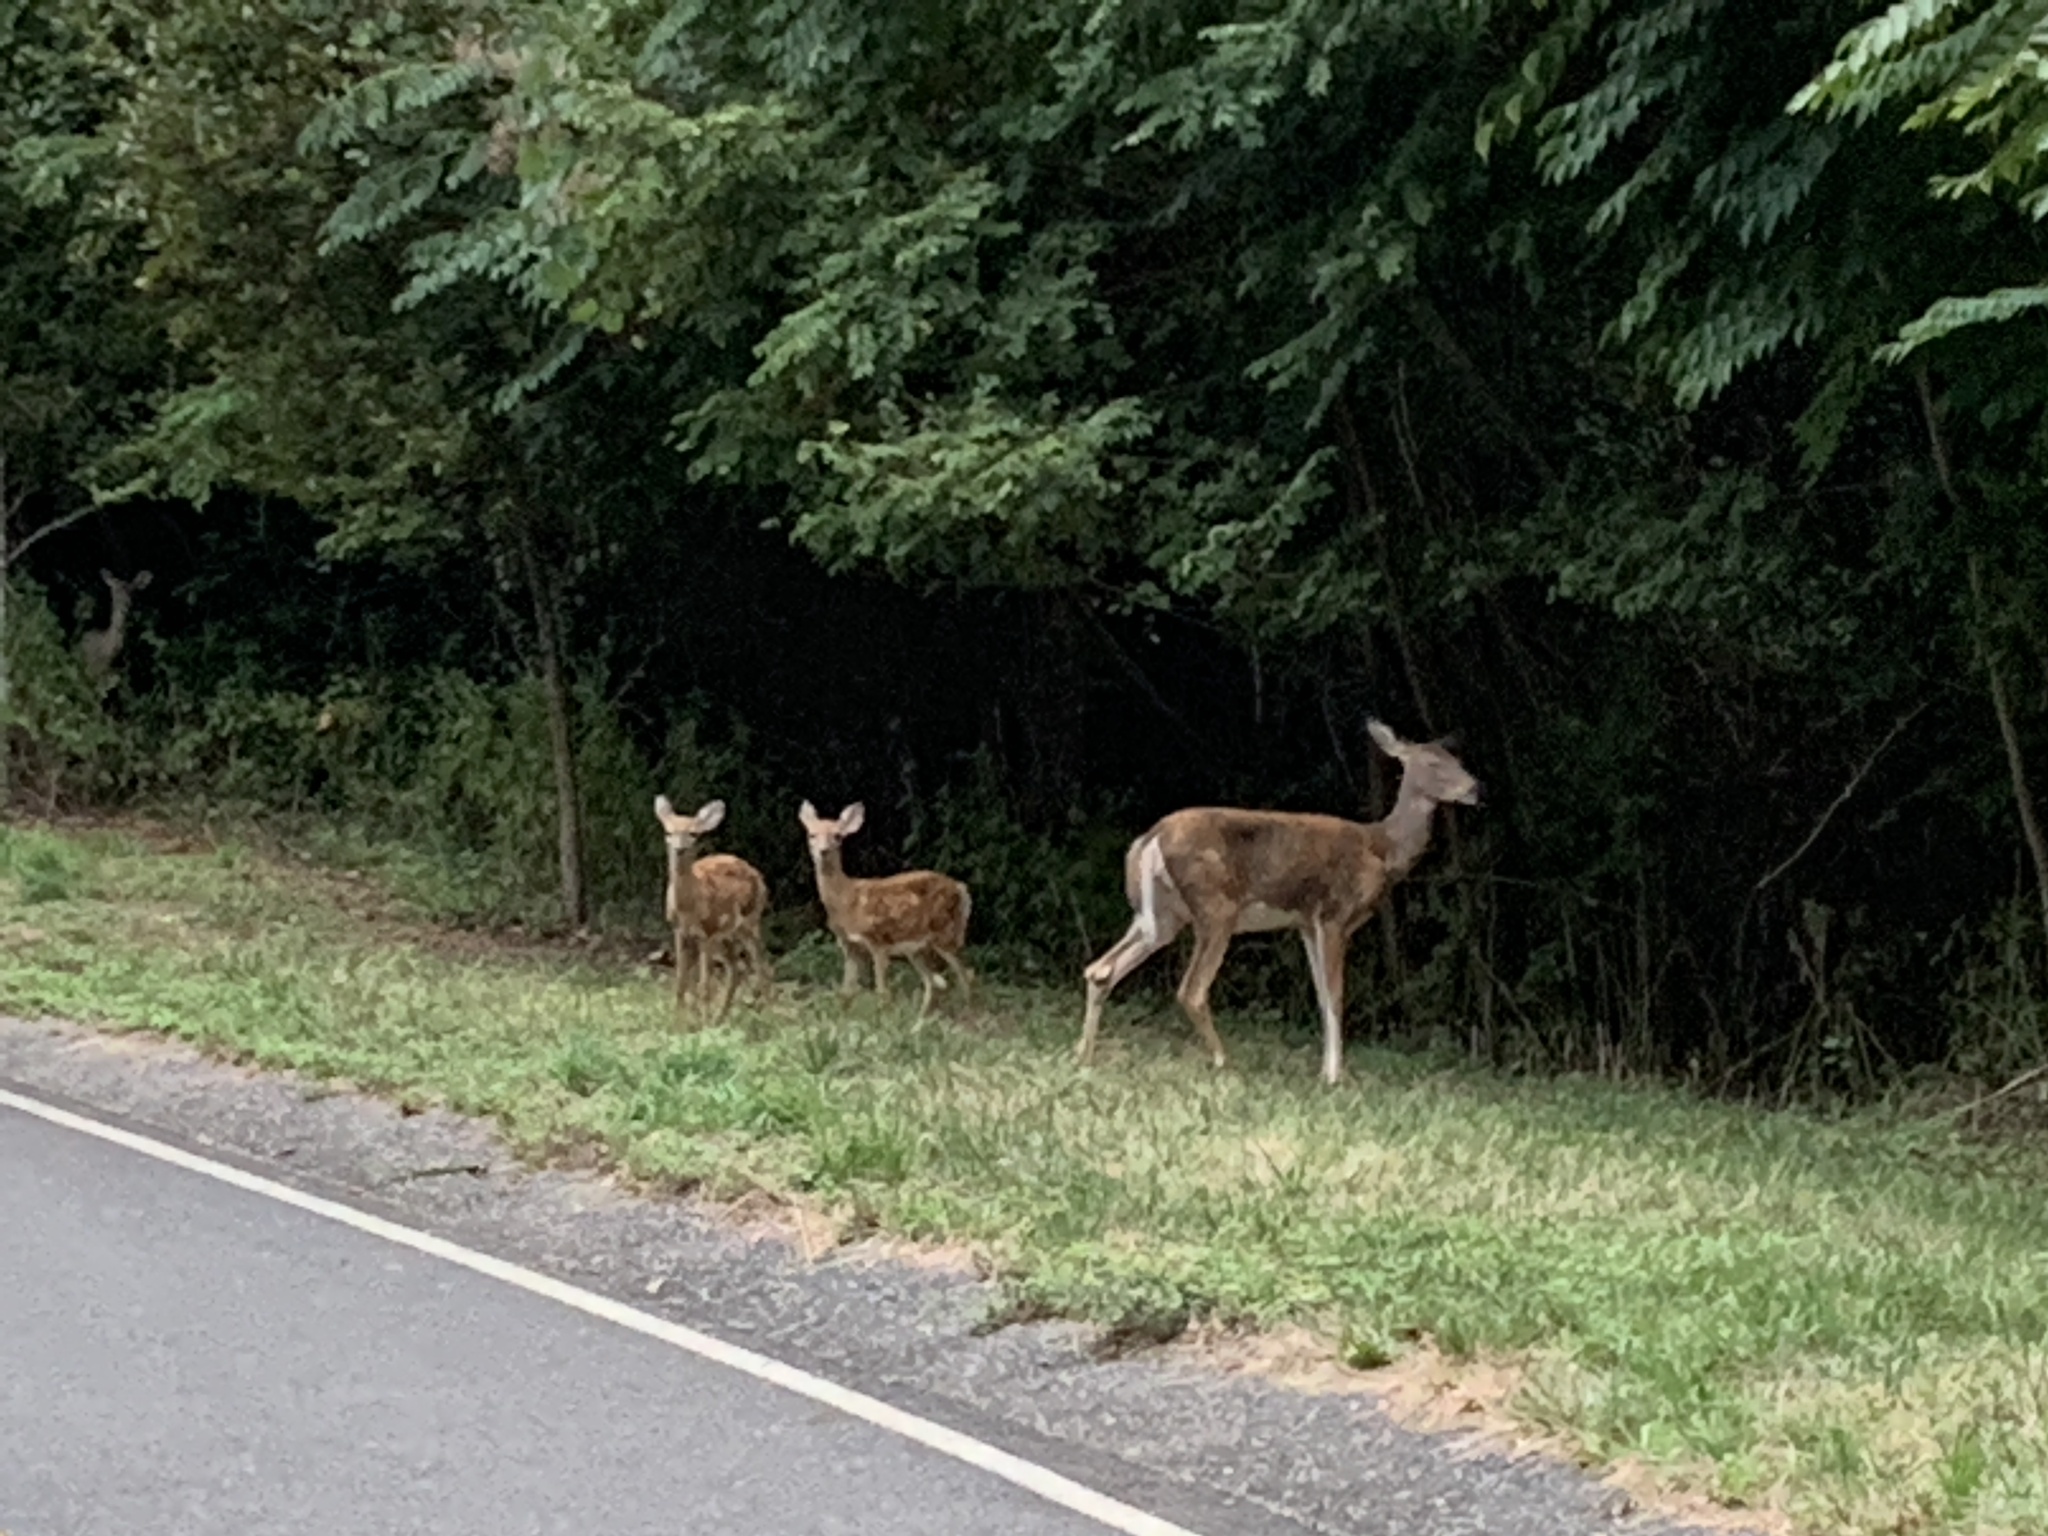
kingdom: Animalia
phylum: Chordata
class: Mammalia
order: Artiodactyla
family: Cervidae
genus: Odocoileus
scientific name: Odocoileus virginianus
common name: White-tailed deer
